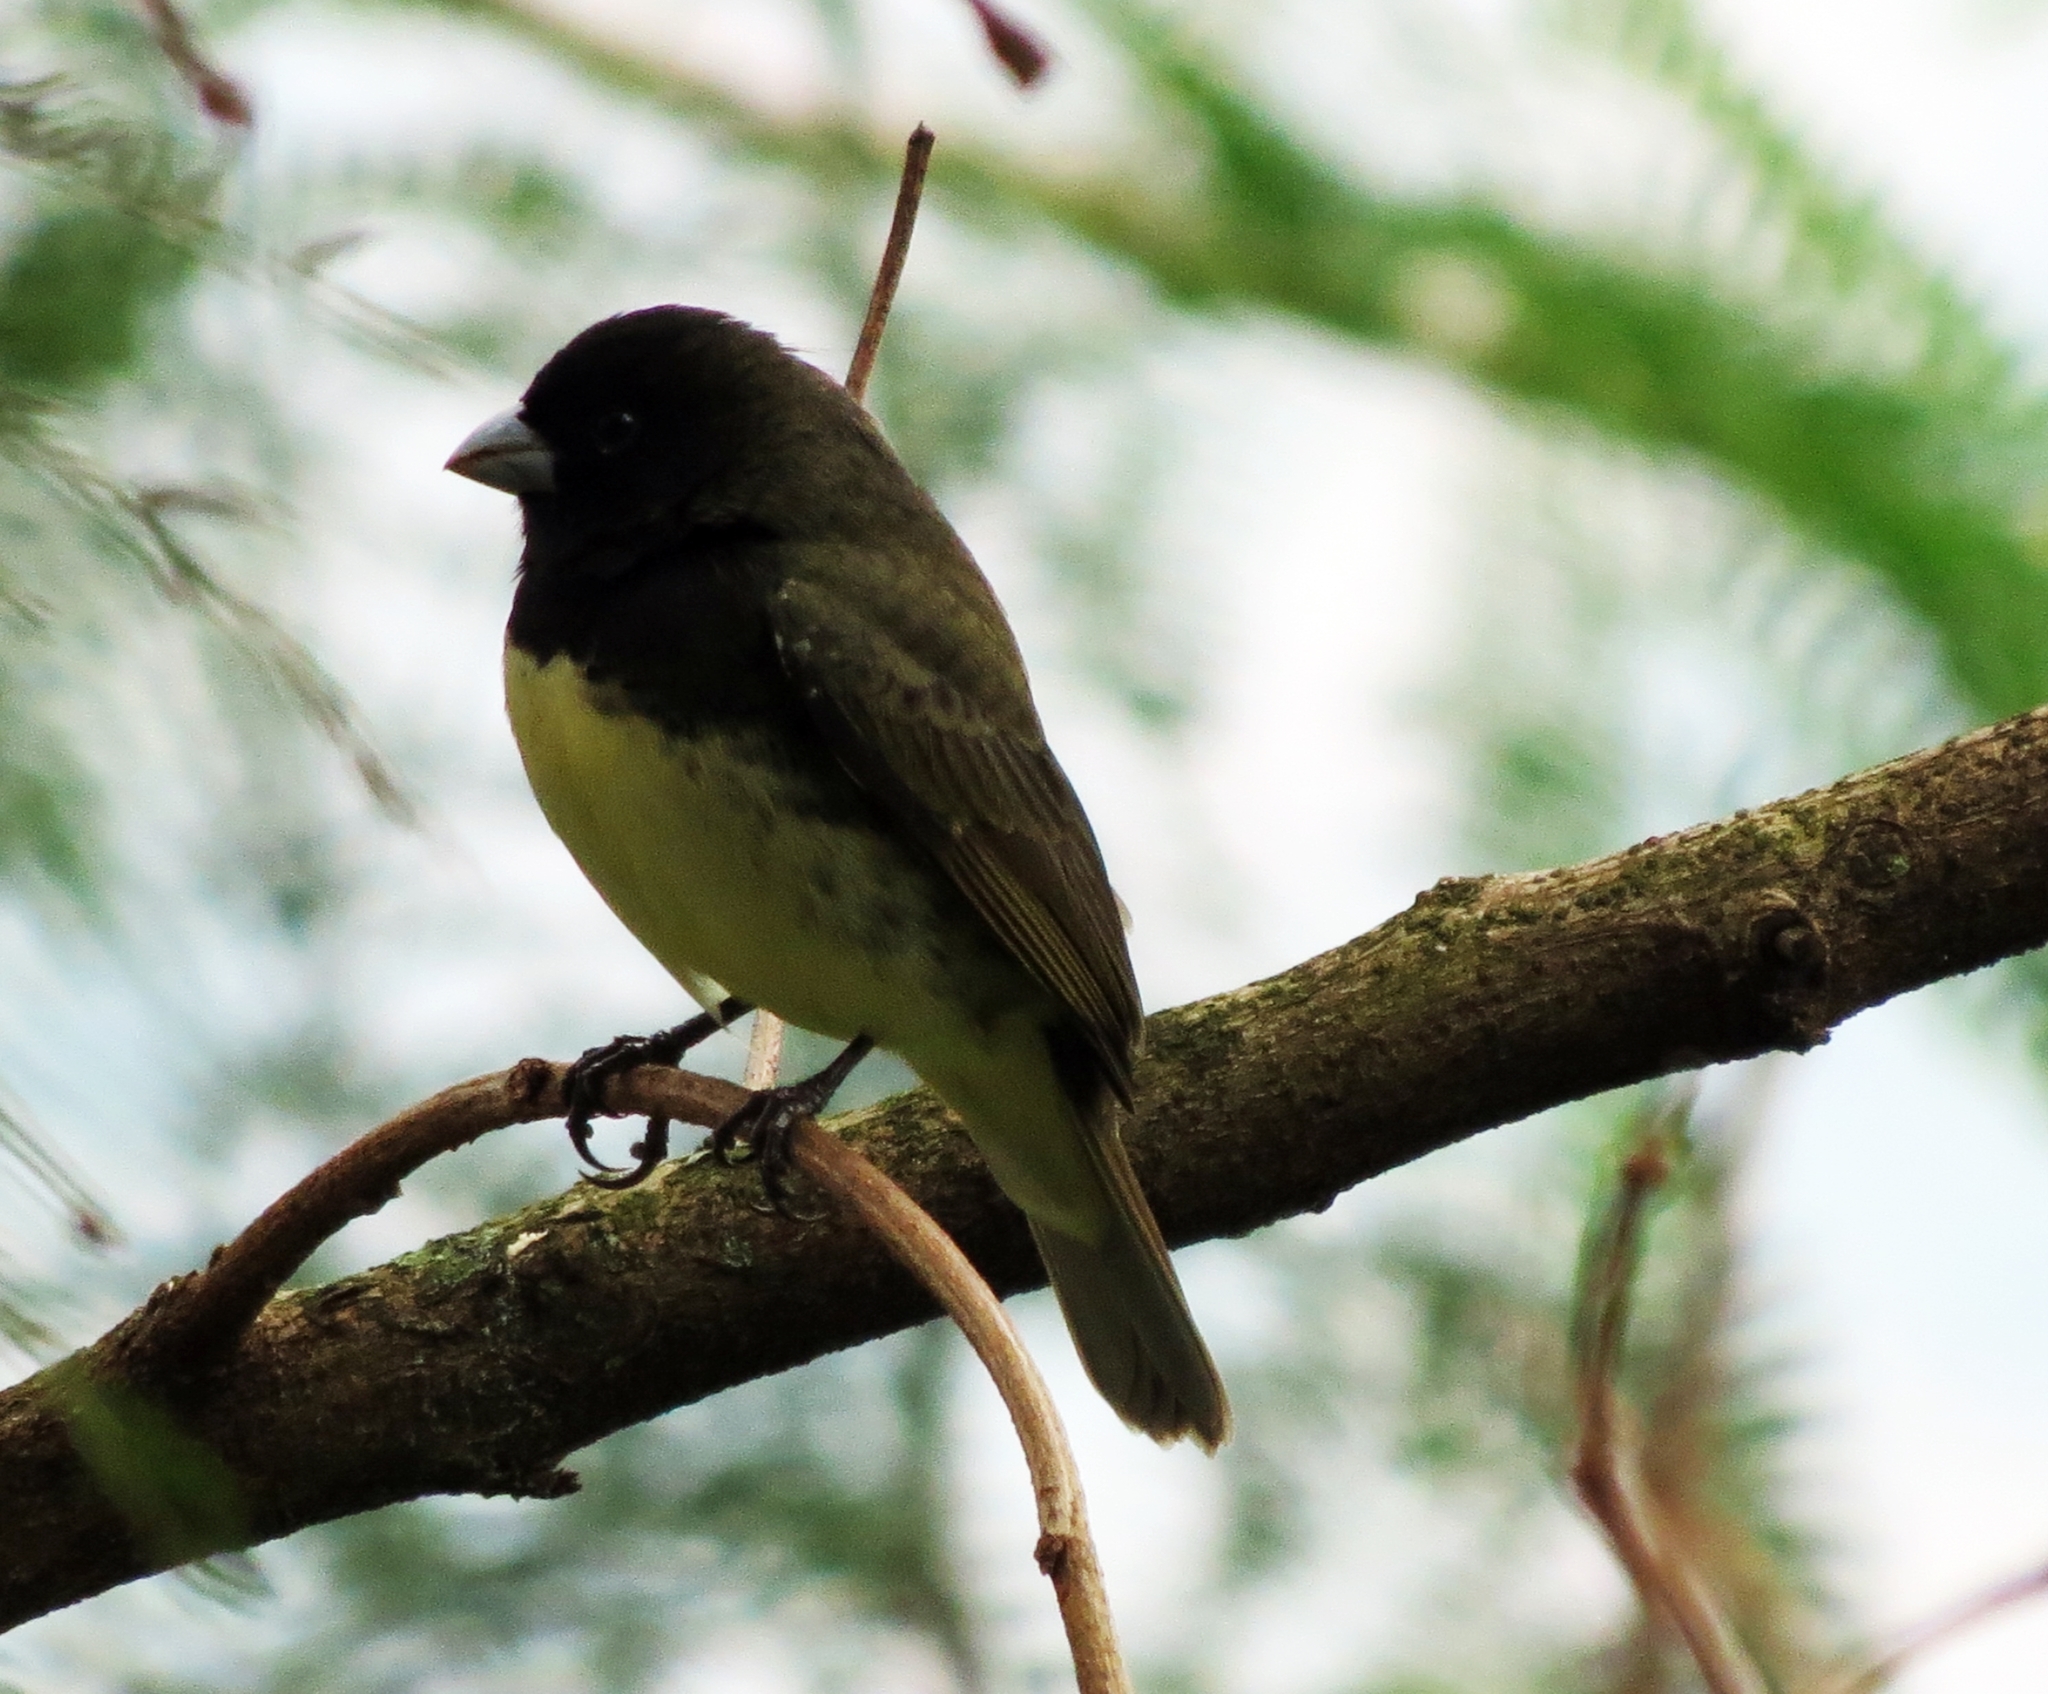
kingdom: Animalia
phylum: Chordata
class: Aves
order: Passeriformes
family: Thraupidae
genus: Sporophila
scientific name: Sporophila nigricollis
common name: Yellow-bellied seedeater
